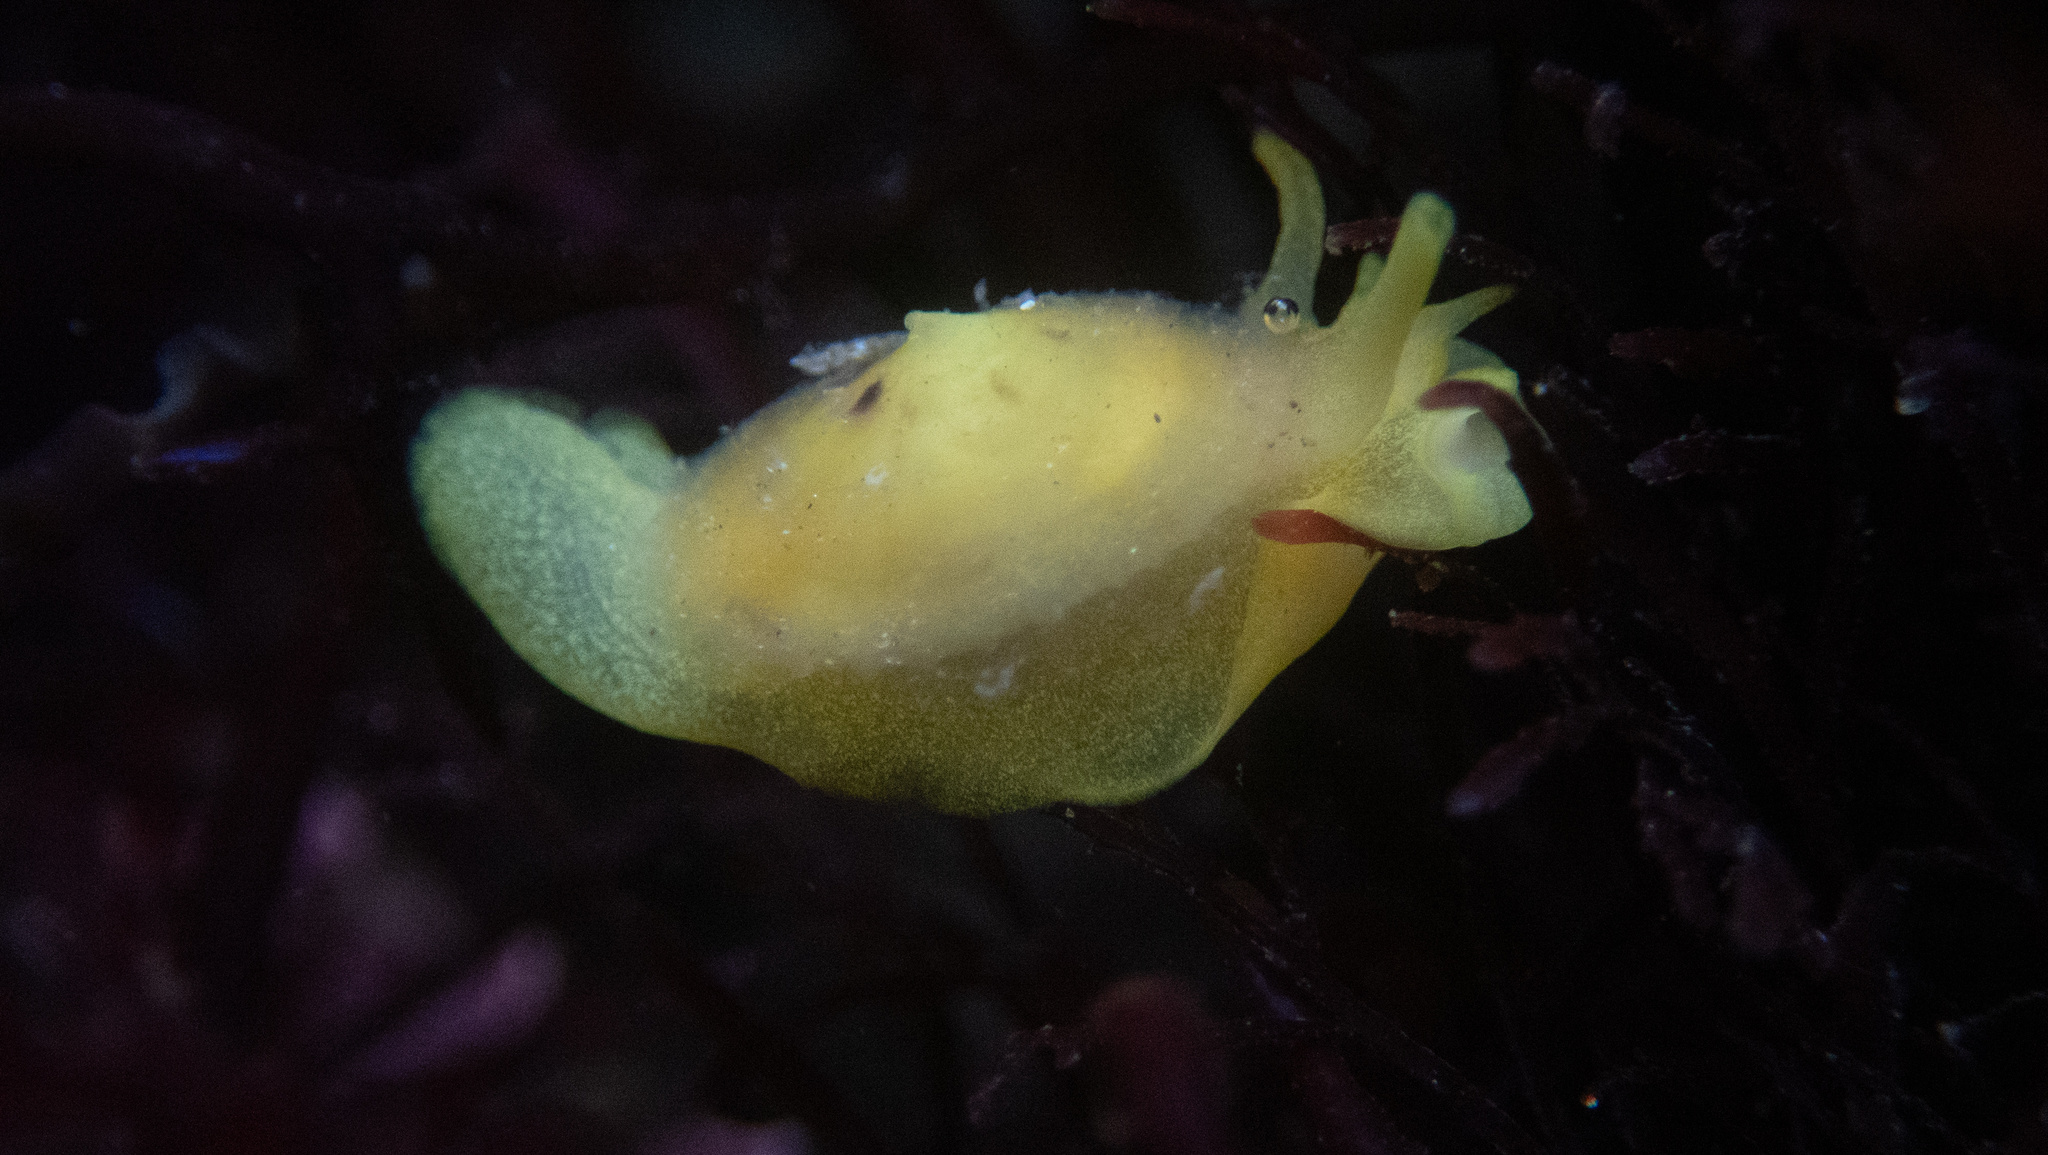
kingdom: Animalia
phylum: Mollusca
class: Gastropoda
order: Umbraculida
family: Tylodinidae
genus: Tylodina
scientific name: Tylodina fungina
